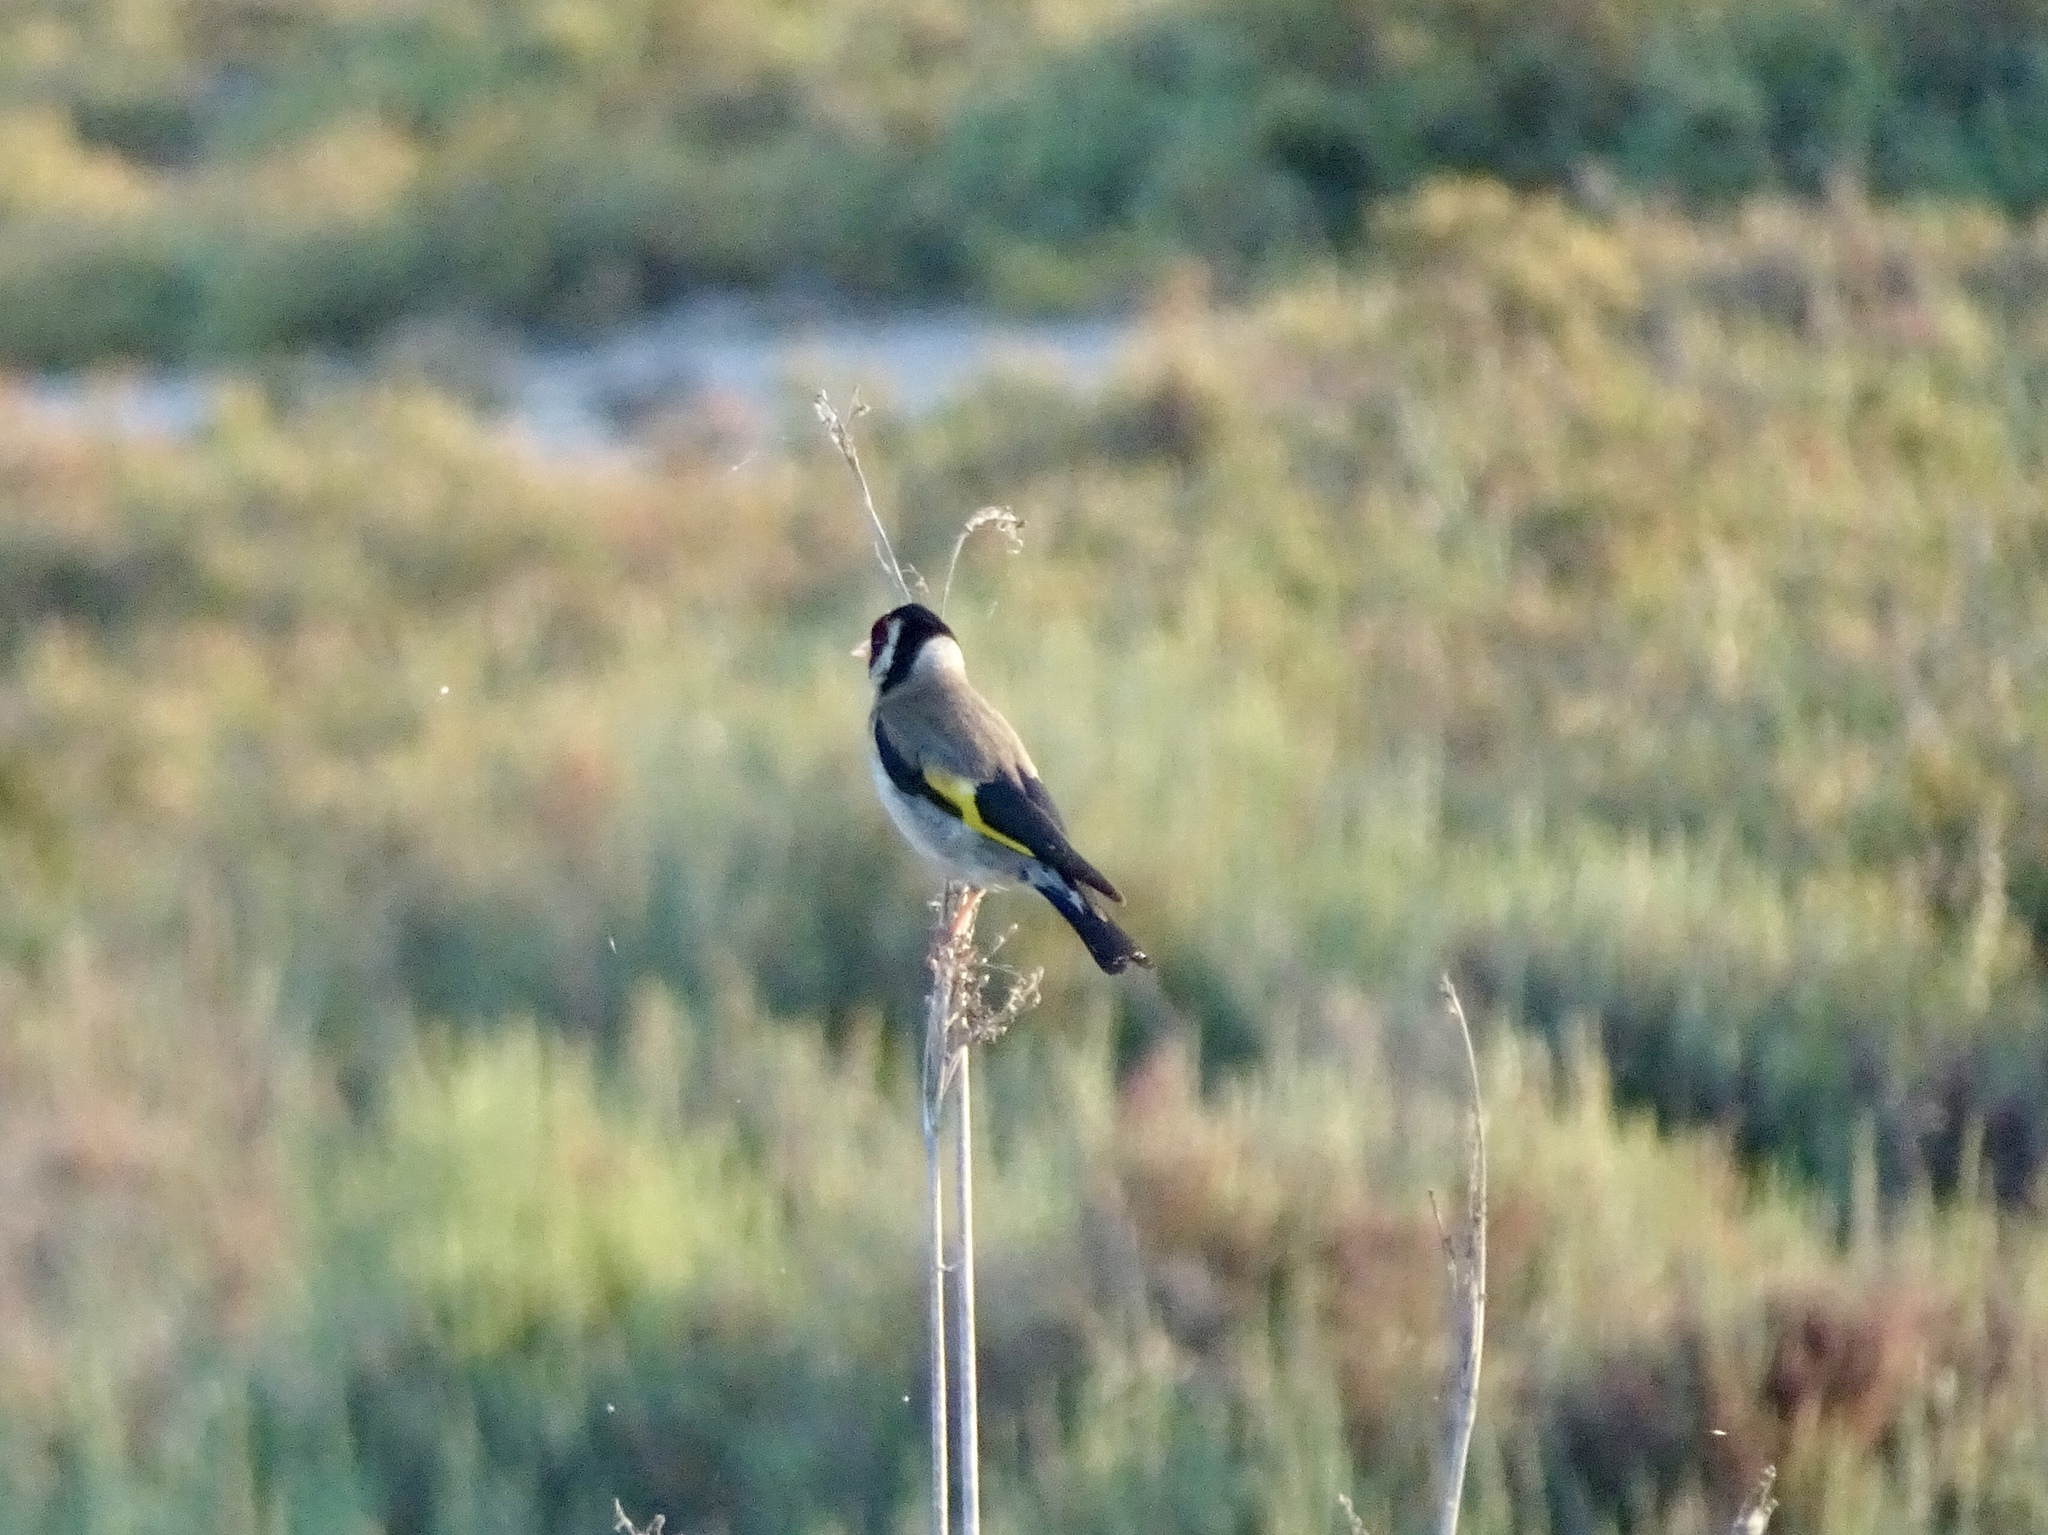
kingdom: Animalia
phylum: Chordata
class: Aves
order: Passeriformes
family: Fringillidae
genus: Carduelis
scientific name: Carduelis carduelis
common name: European goldfinch
